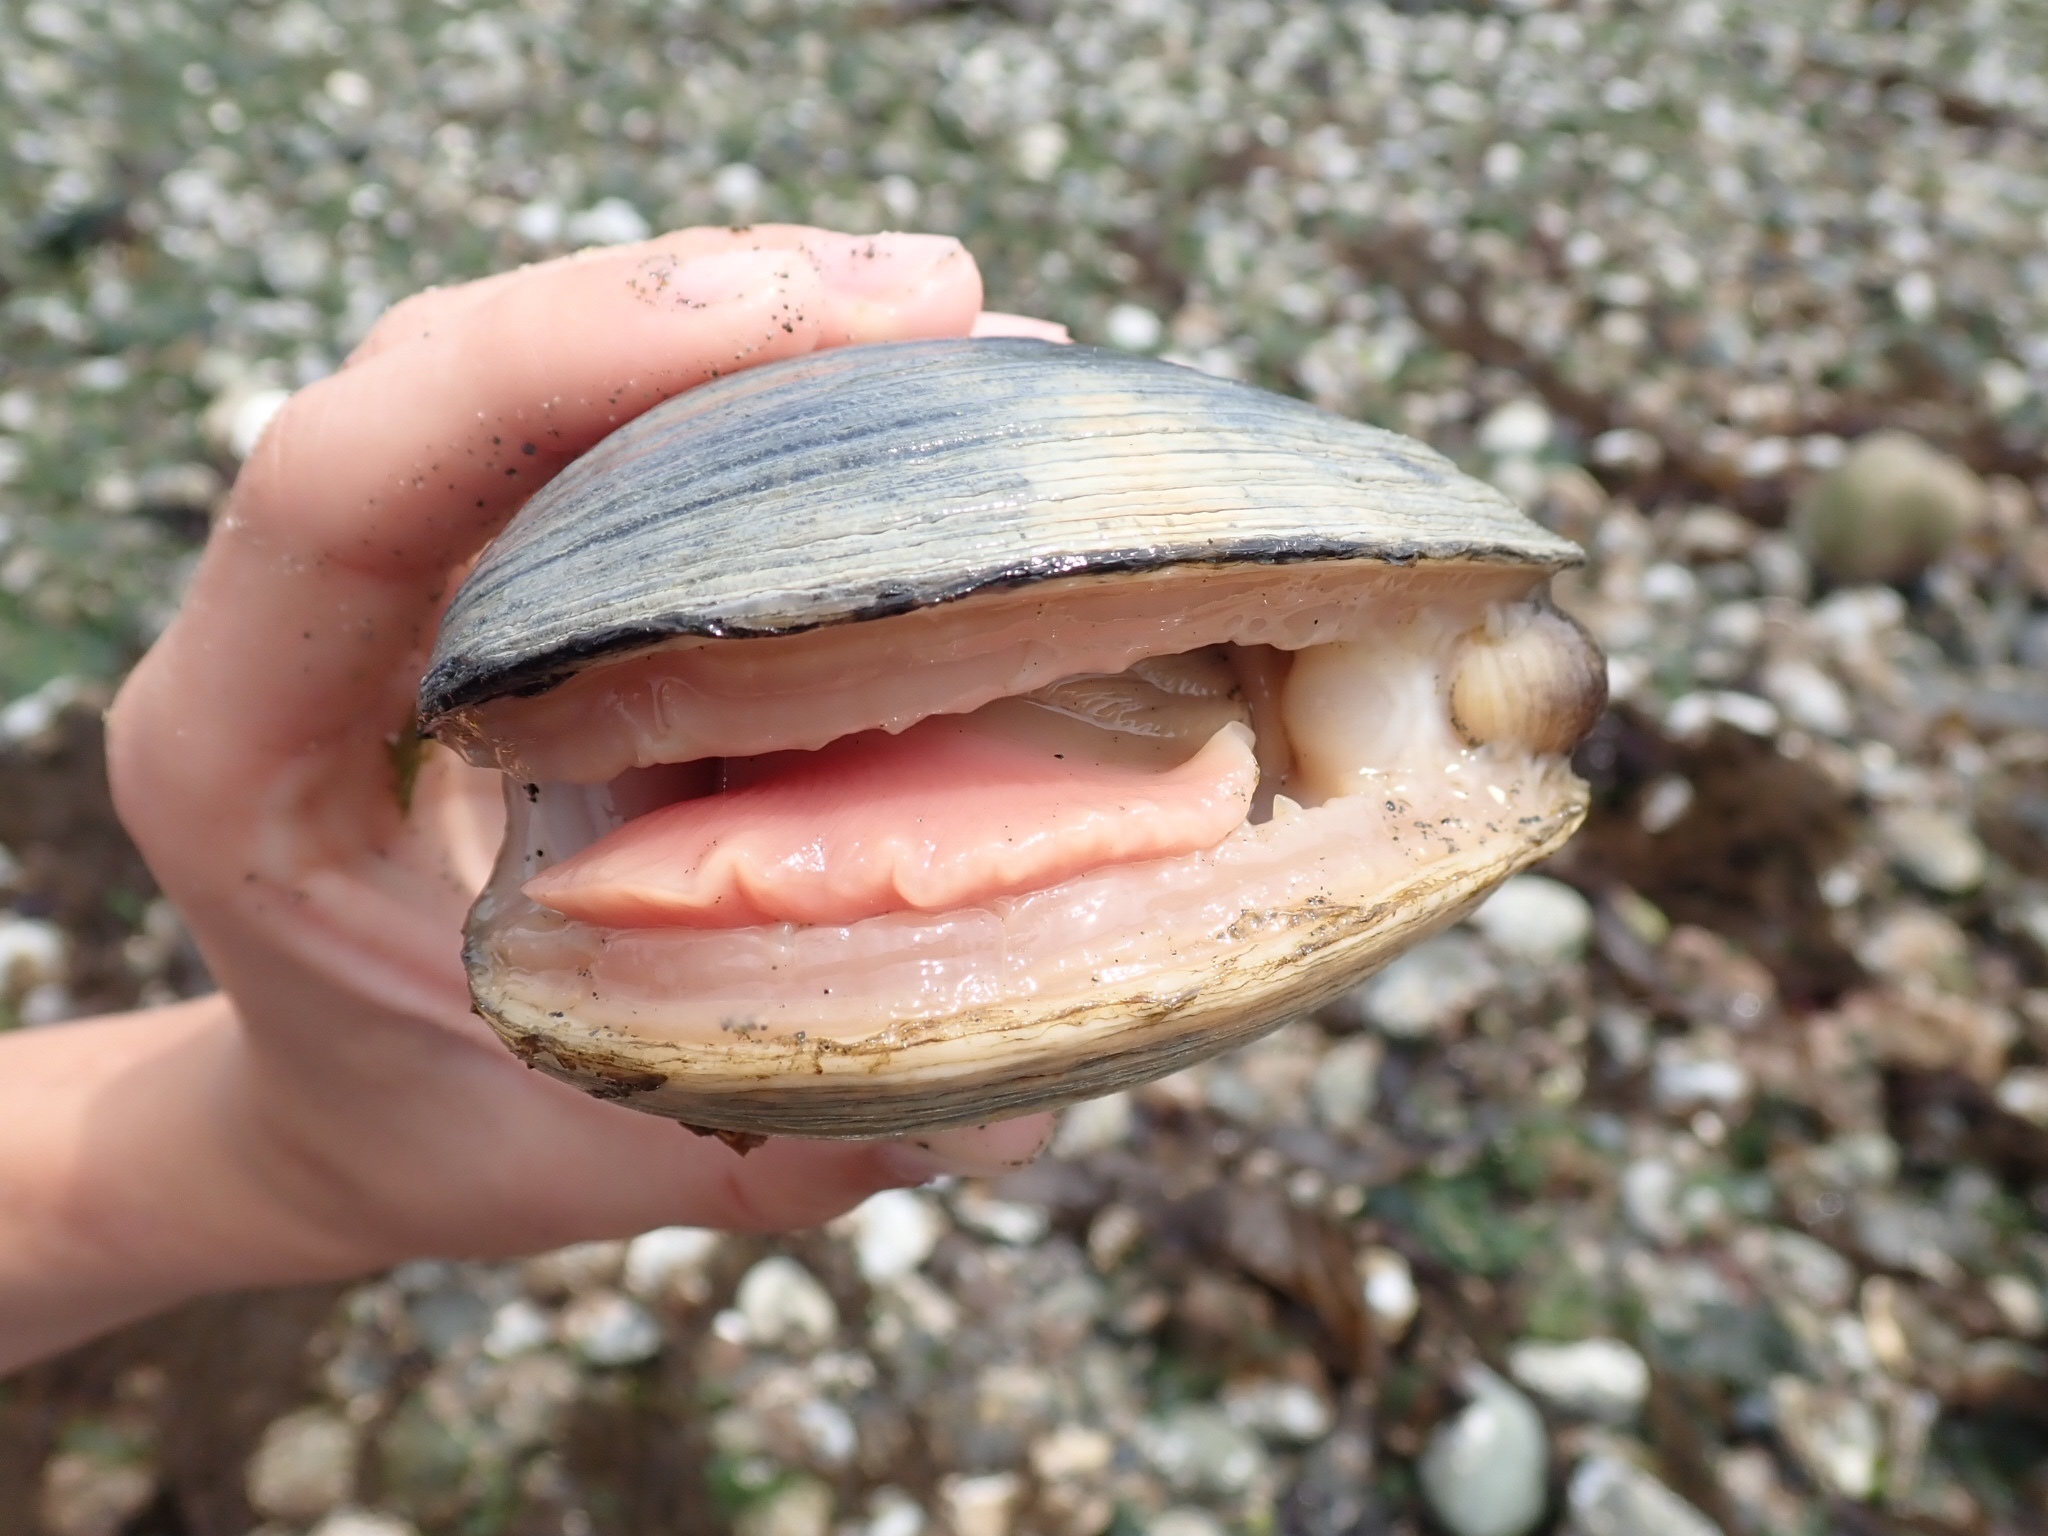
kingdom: Animalia
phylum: Mollusca
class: Bivalvia
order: Venerida
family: Veneridae
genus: Saxidomus
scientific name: Saxidomus gigantea
